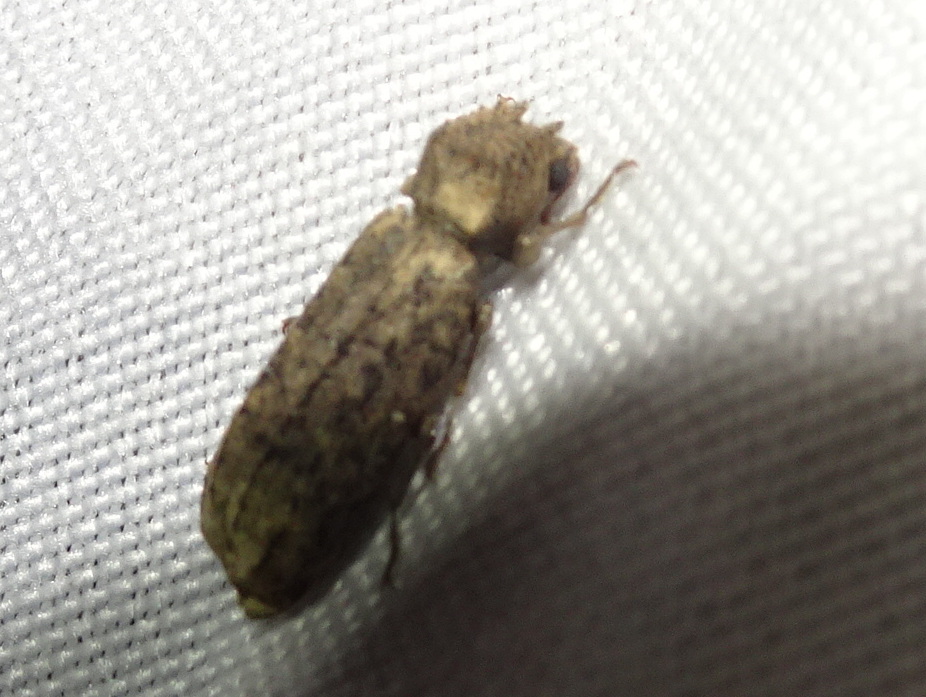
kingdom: Animalia
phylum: Arthropoda
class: Insecta
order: Coleoptera
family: Bostrichidae
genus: Lichenophanes
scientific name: Lichenophanes bicornis
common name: Two-horned powder-post beetle
